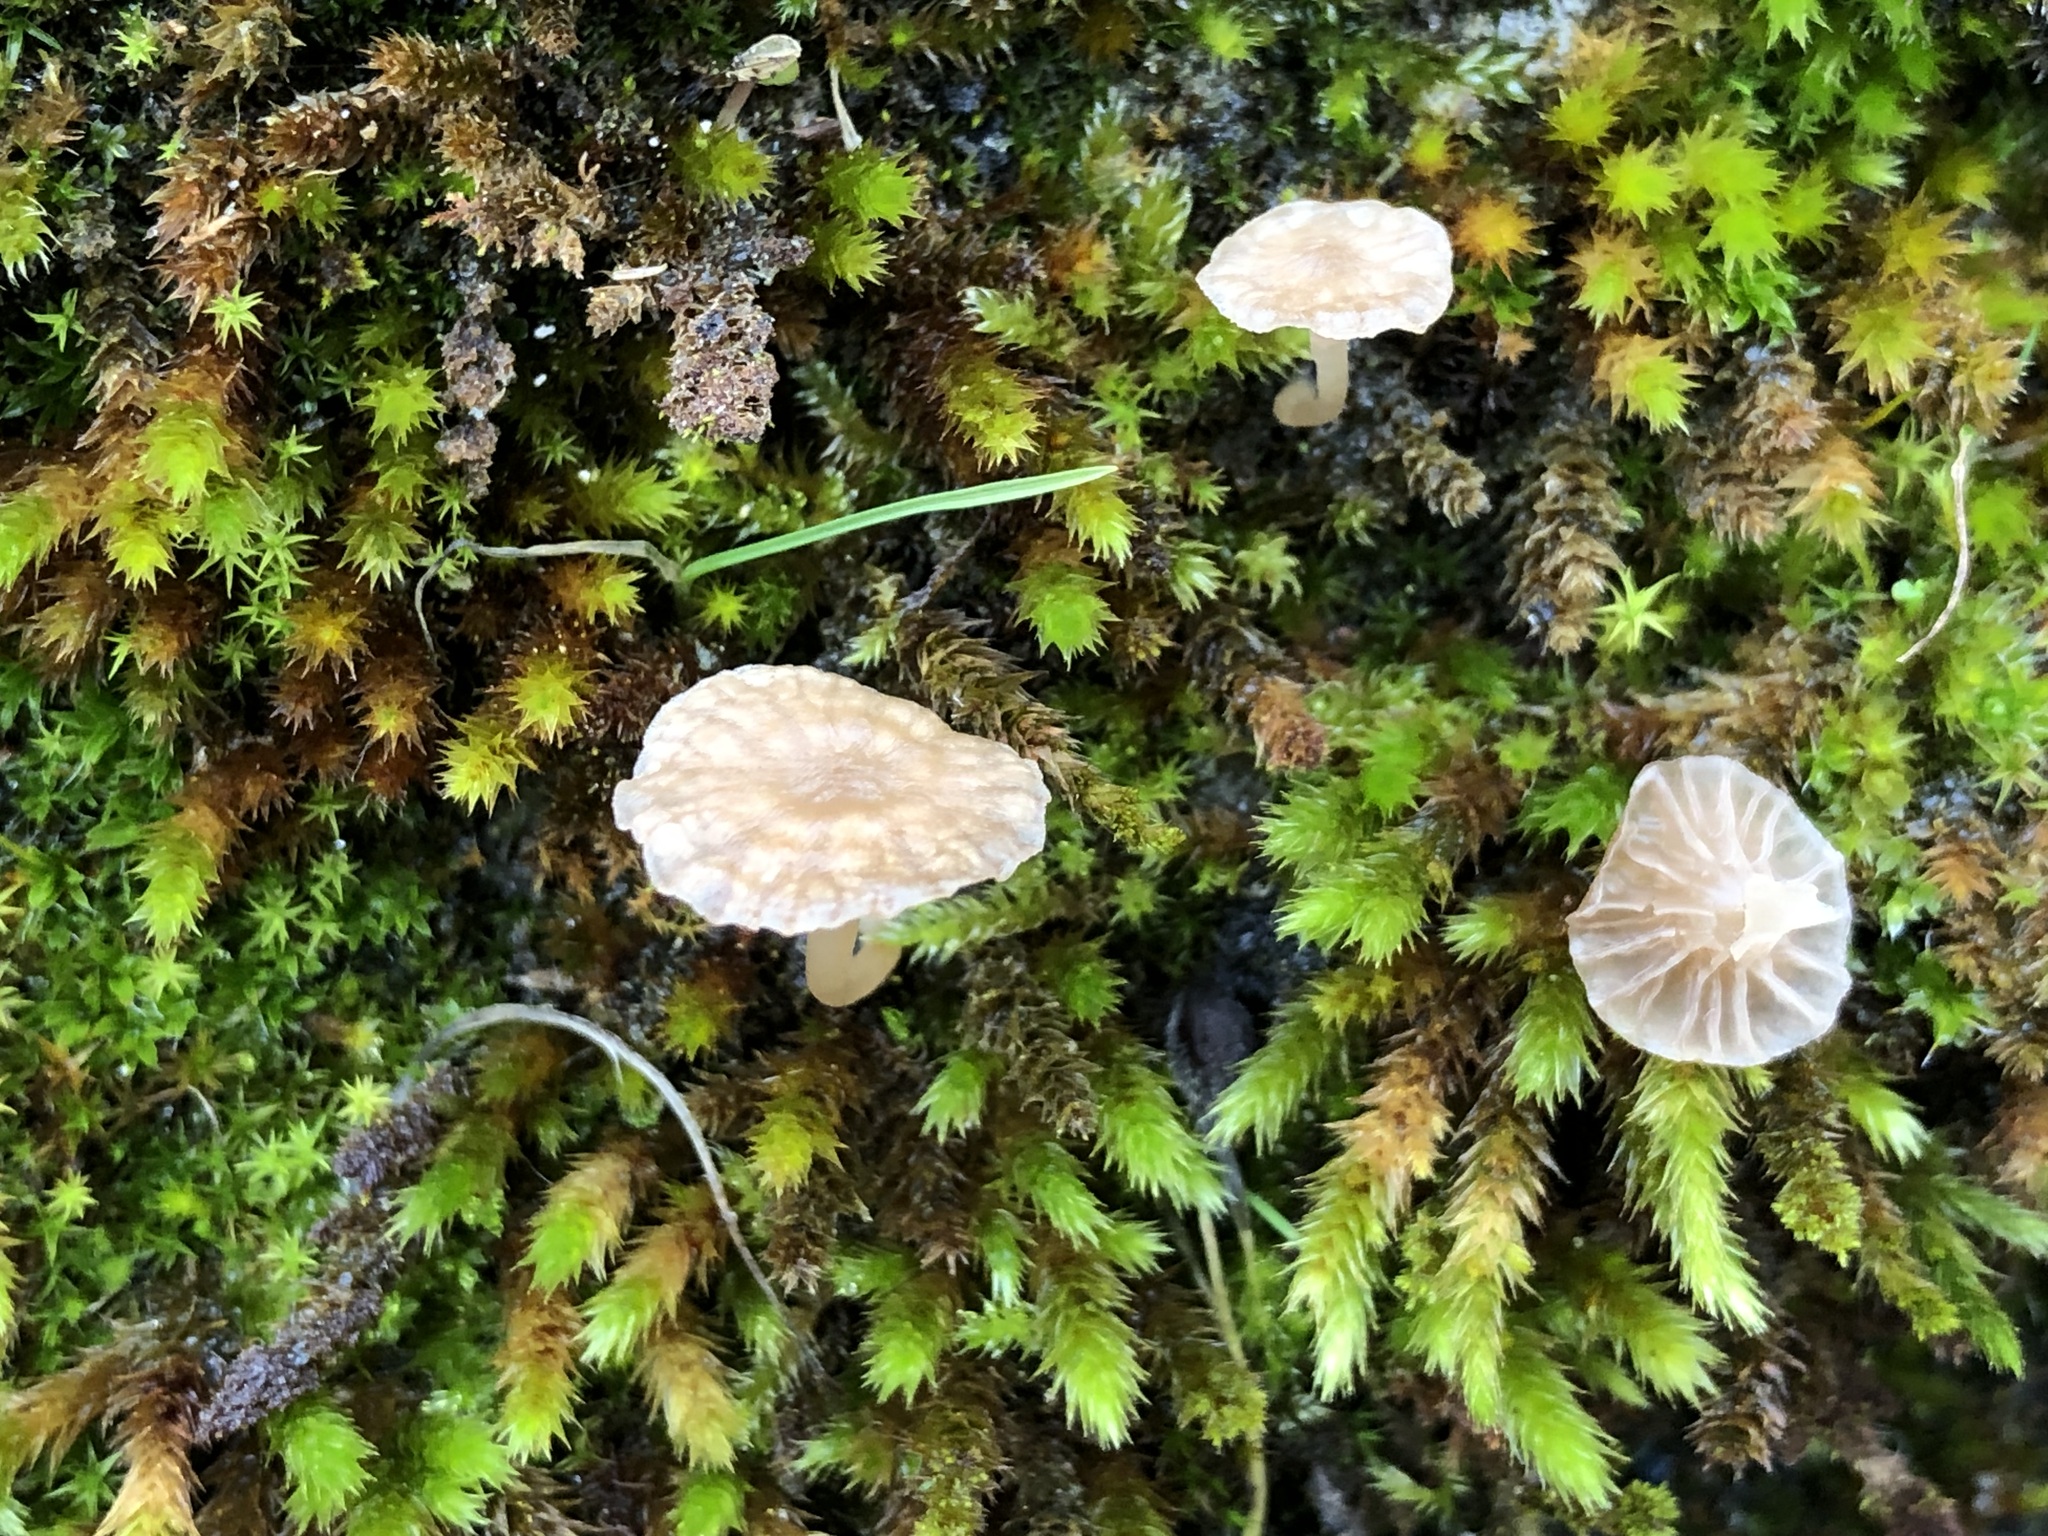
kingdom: Fungi
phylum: Basidiomycota
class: Agaricomycetes
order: Agaricales
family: Hygrophoraceae
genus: Arrhenia
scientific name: Arrhenia rickenii
